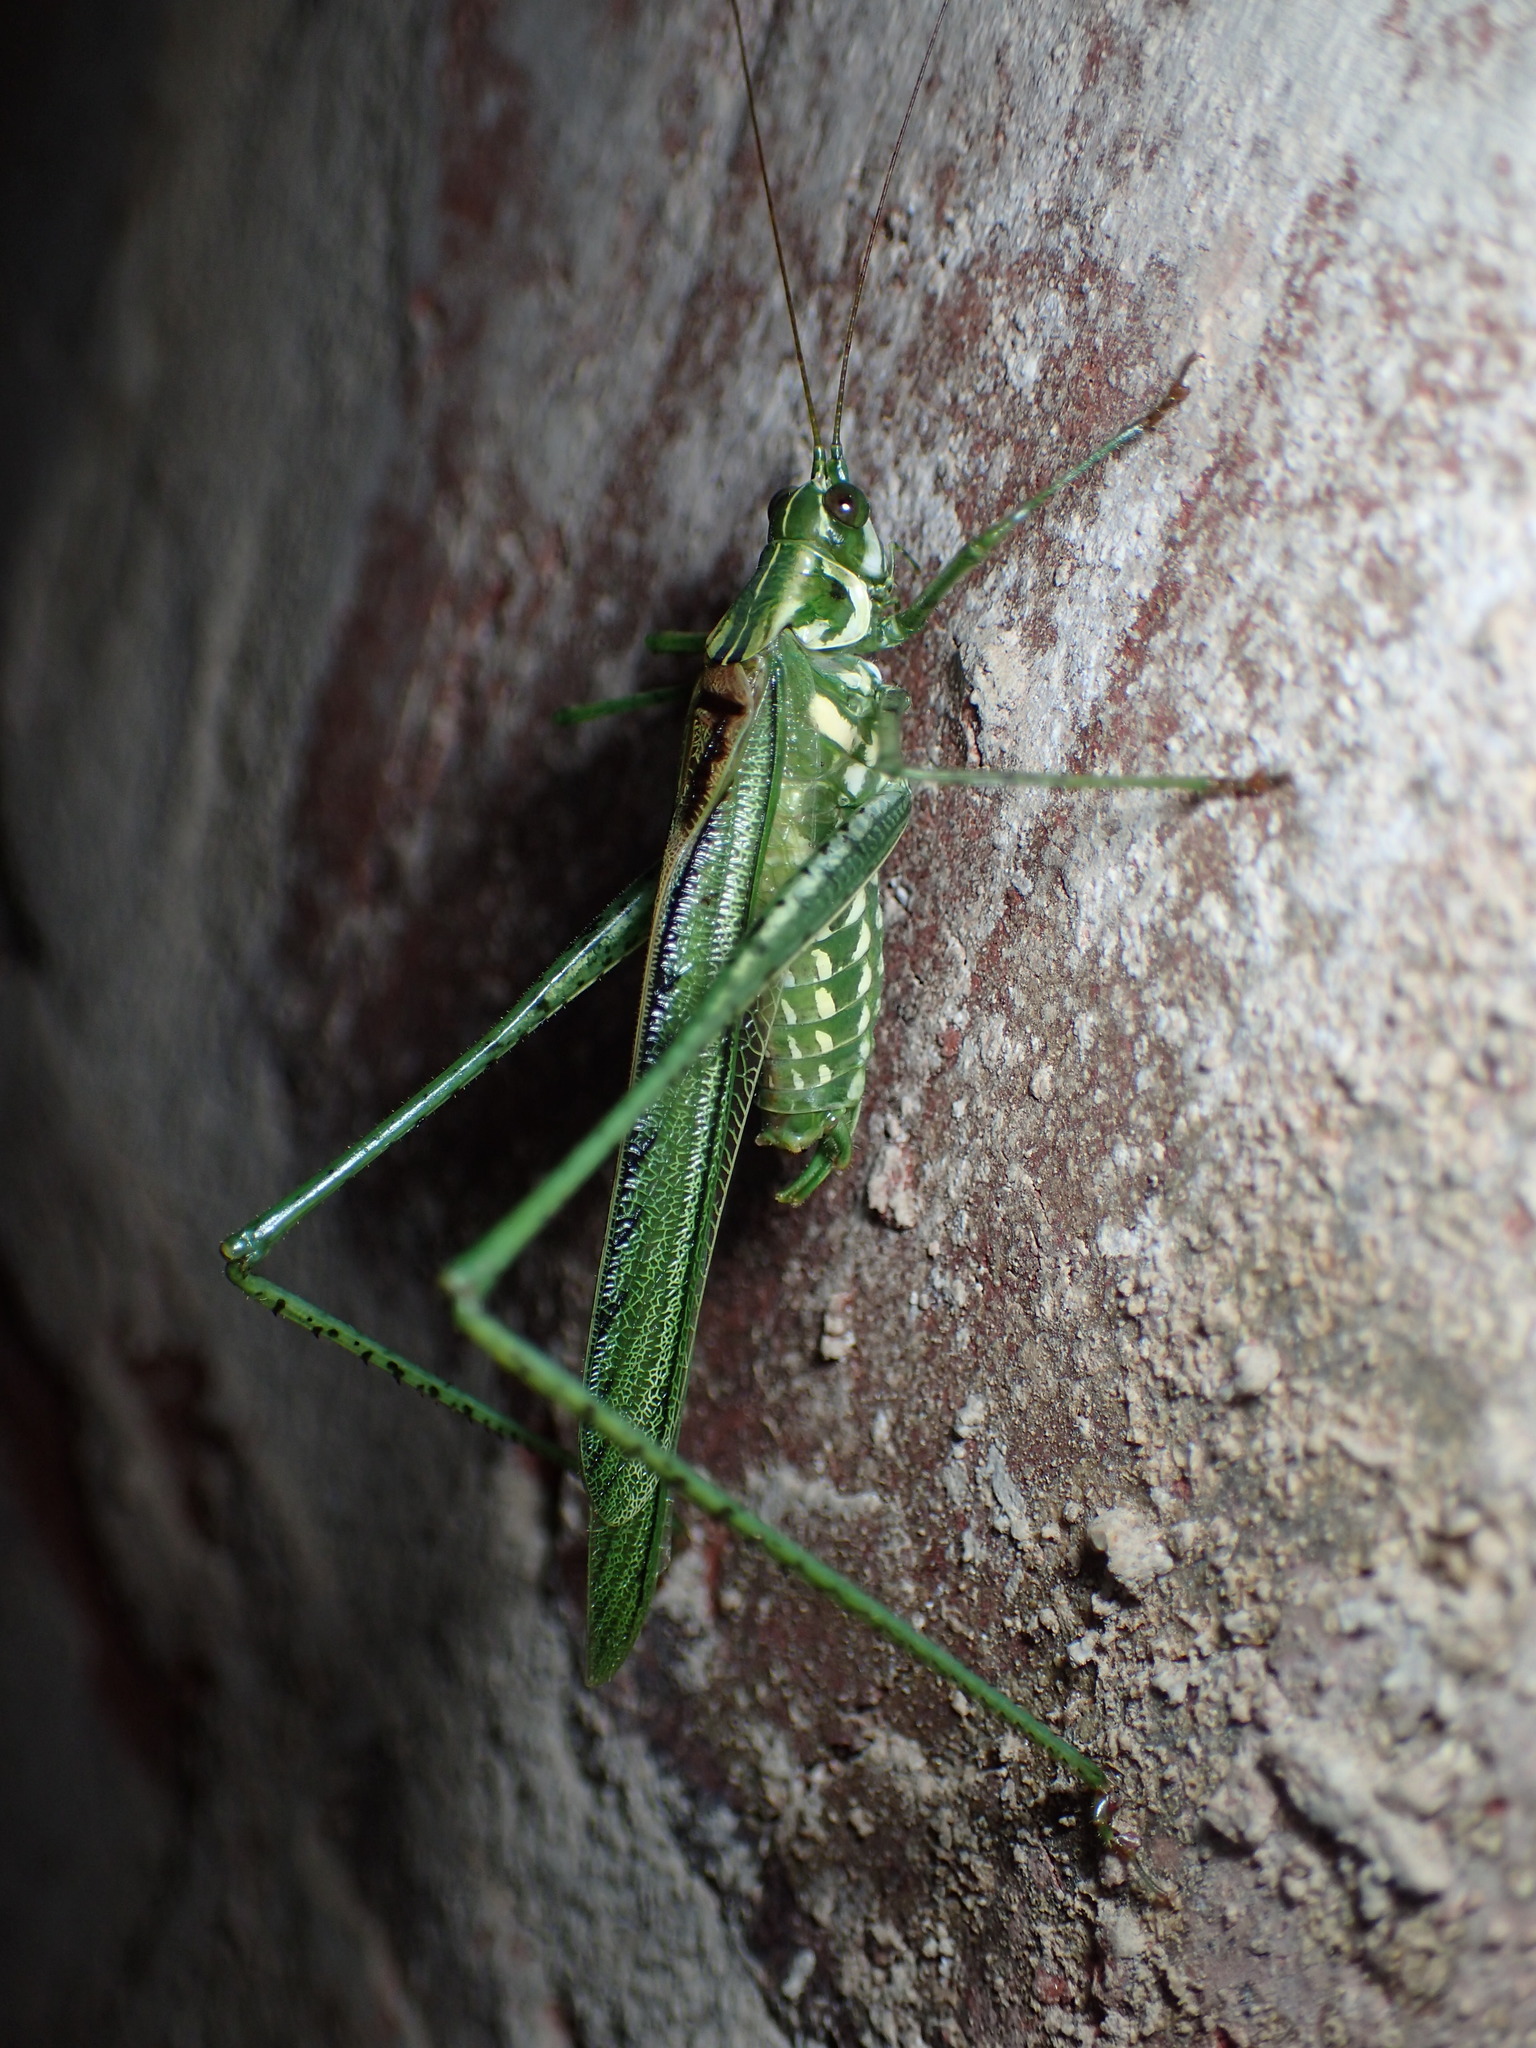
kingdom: Animalia
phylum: Arthropoda
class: Insecta
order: Orthoptera
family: Tettigoniidae
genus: Inscudderia
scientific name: Inscudderia walkeri
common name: Eastern cypress katydid
